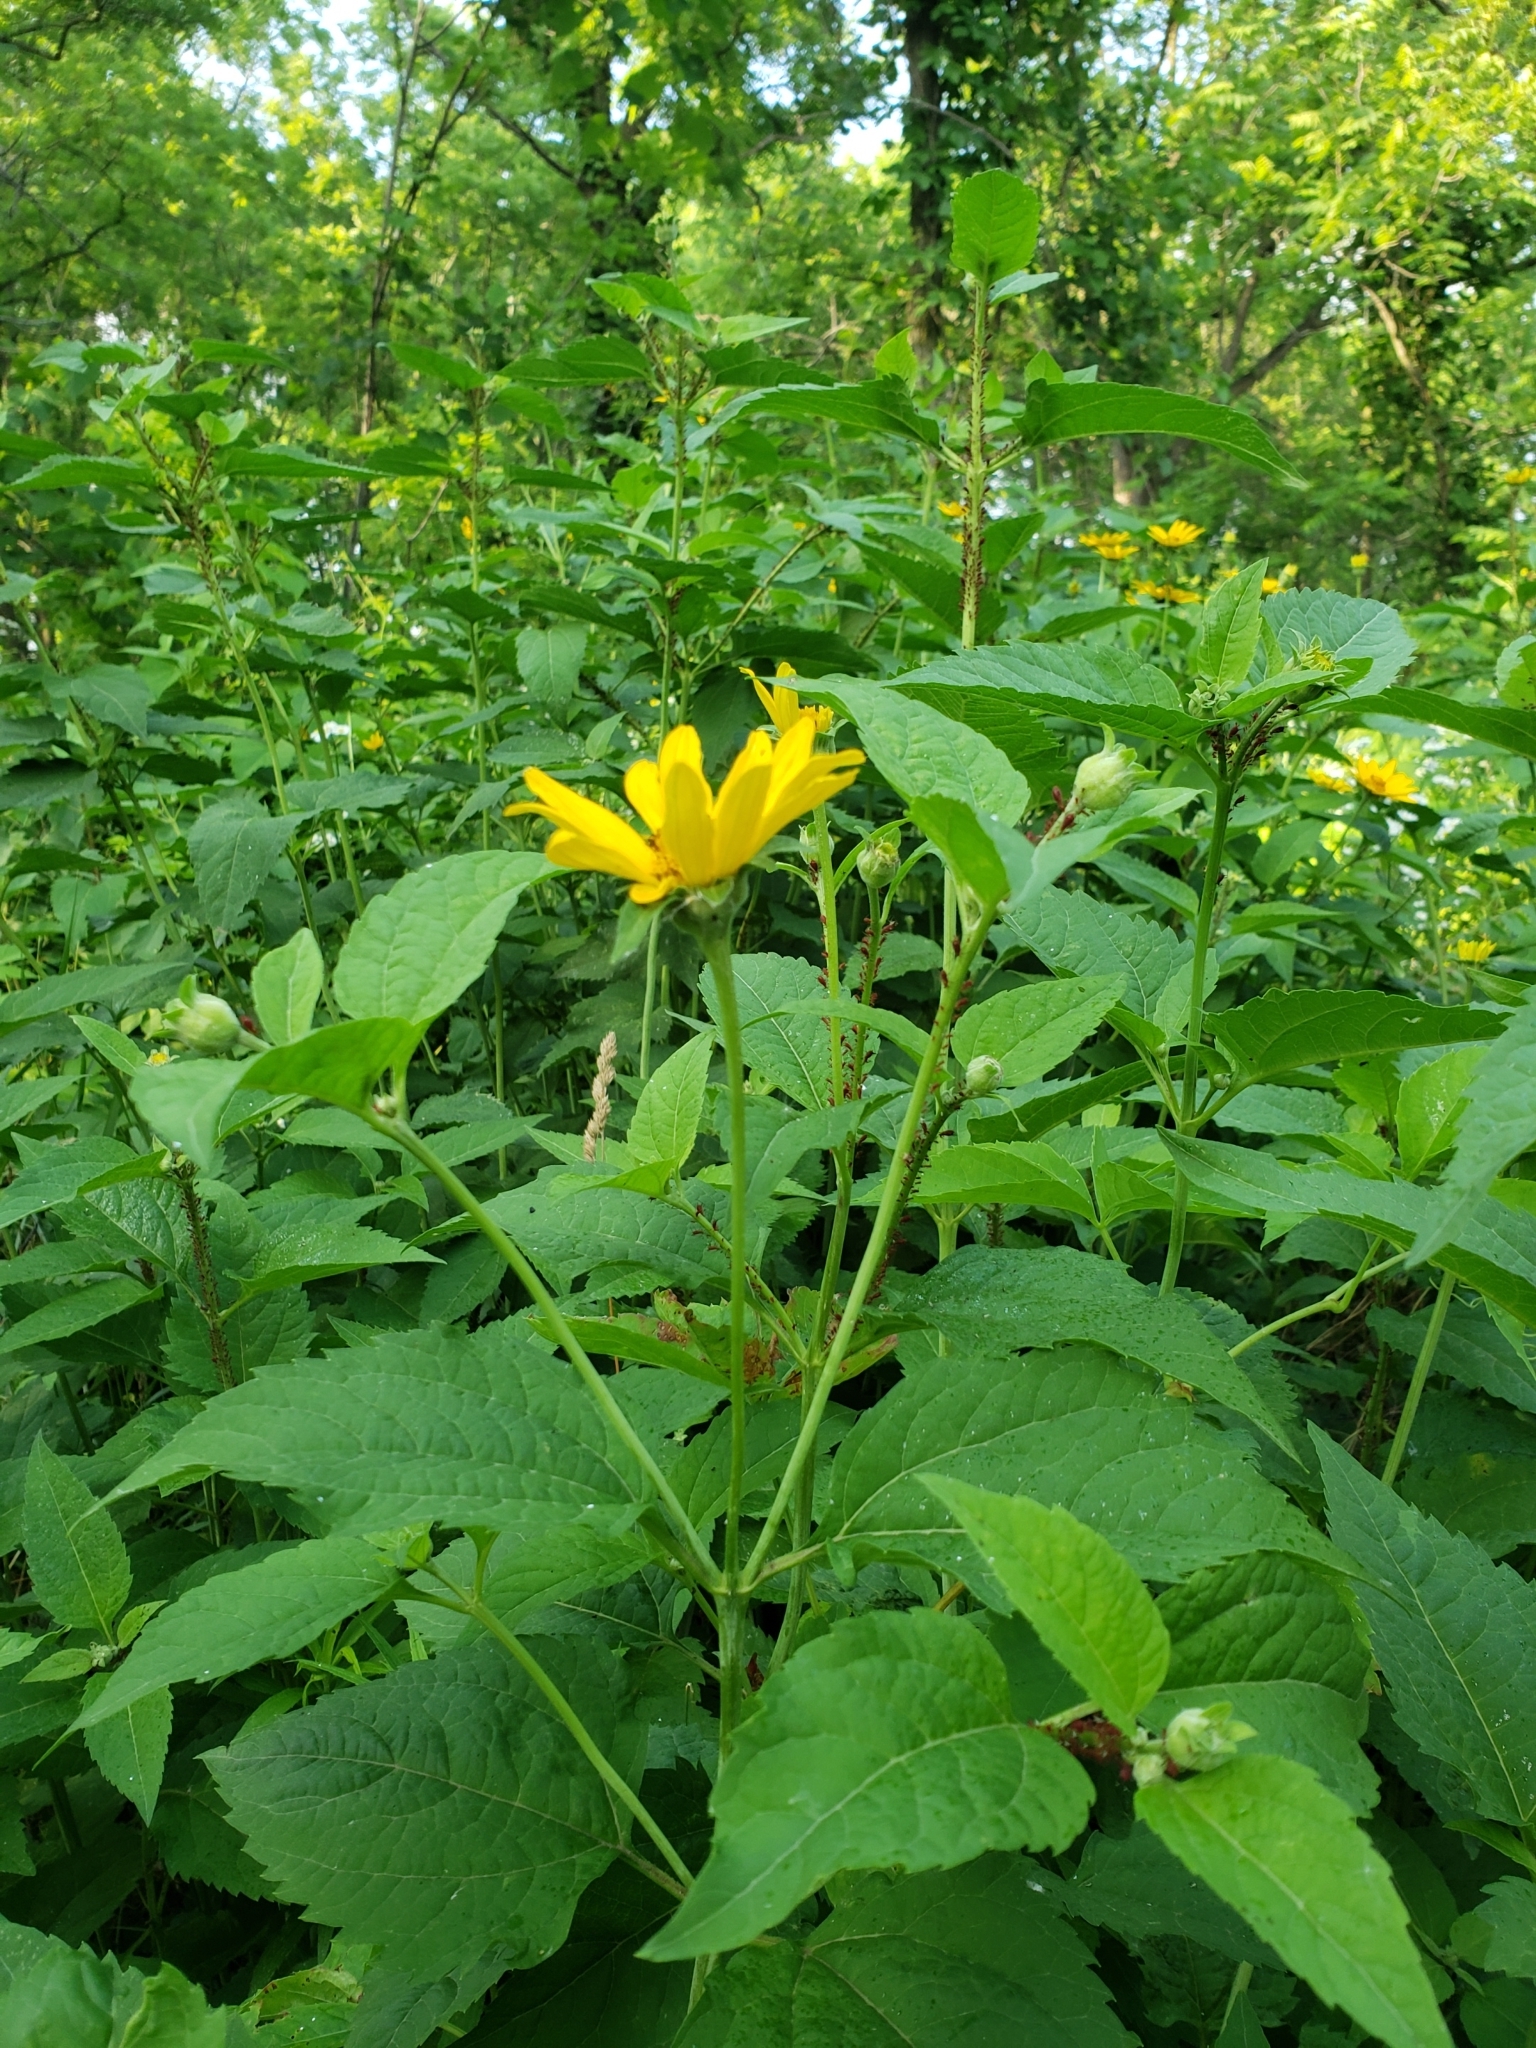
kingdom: Plantae
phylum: Tracheophyta
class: Magnoliopsida
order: Asterales
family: Asteraceae
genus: Heliopsis
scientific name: Heliopsis helianthoides
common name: False sunflower
